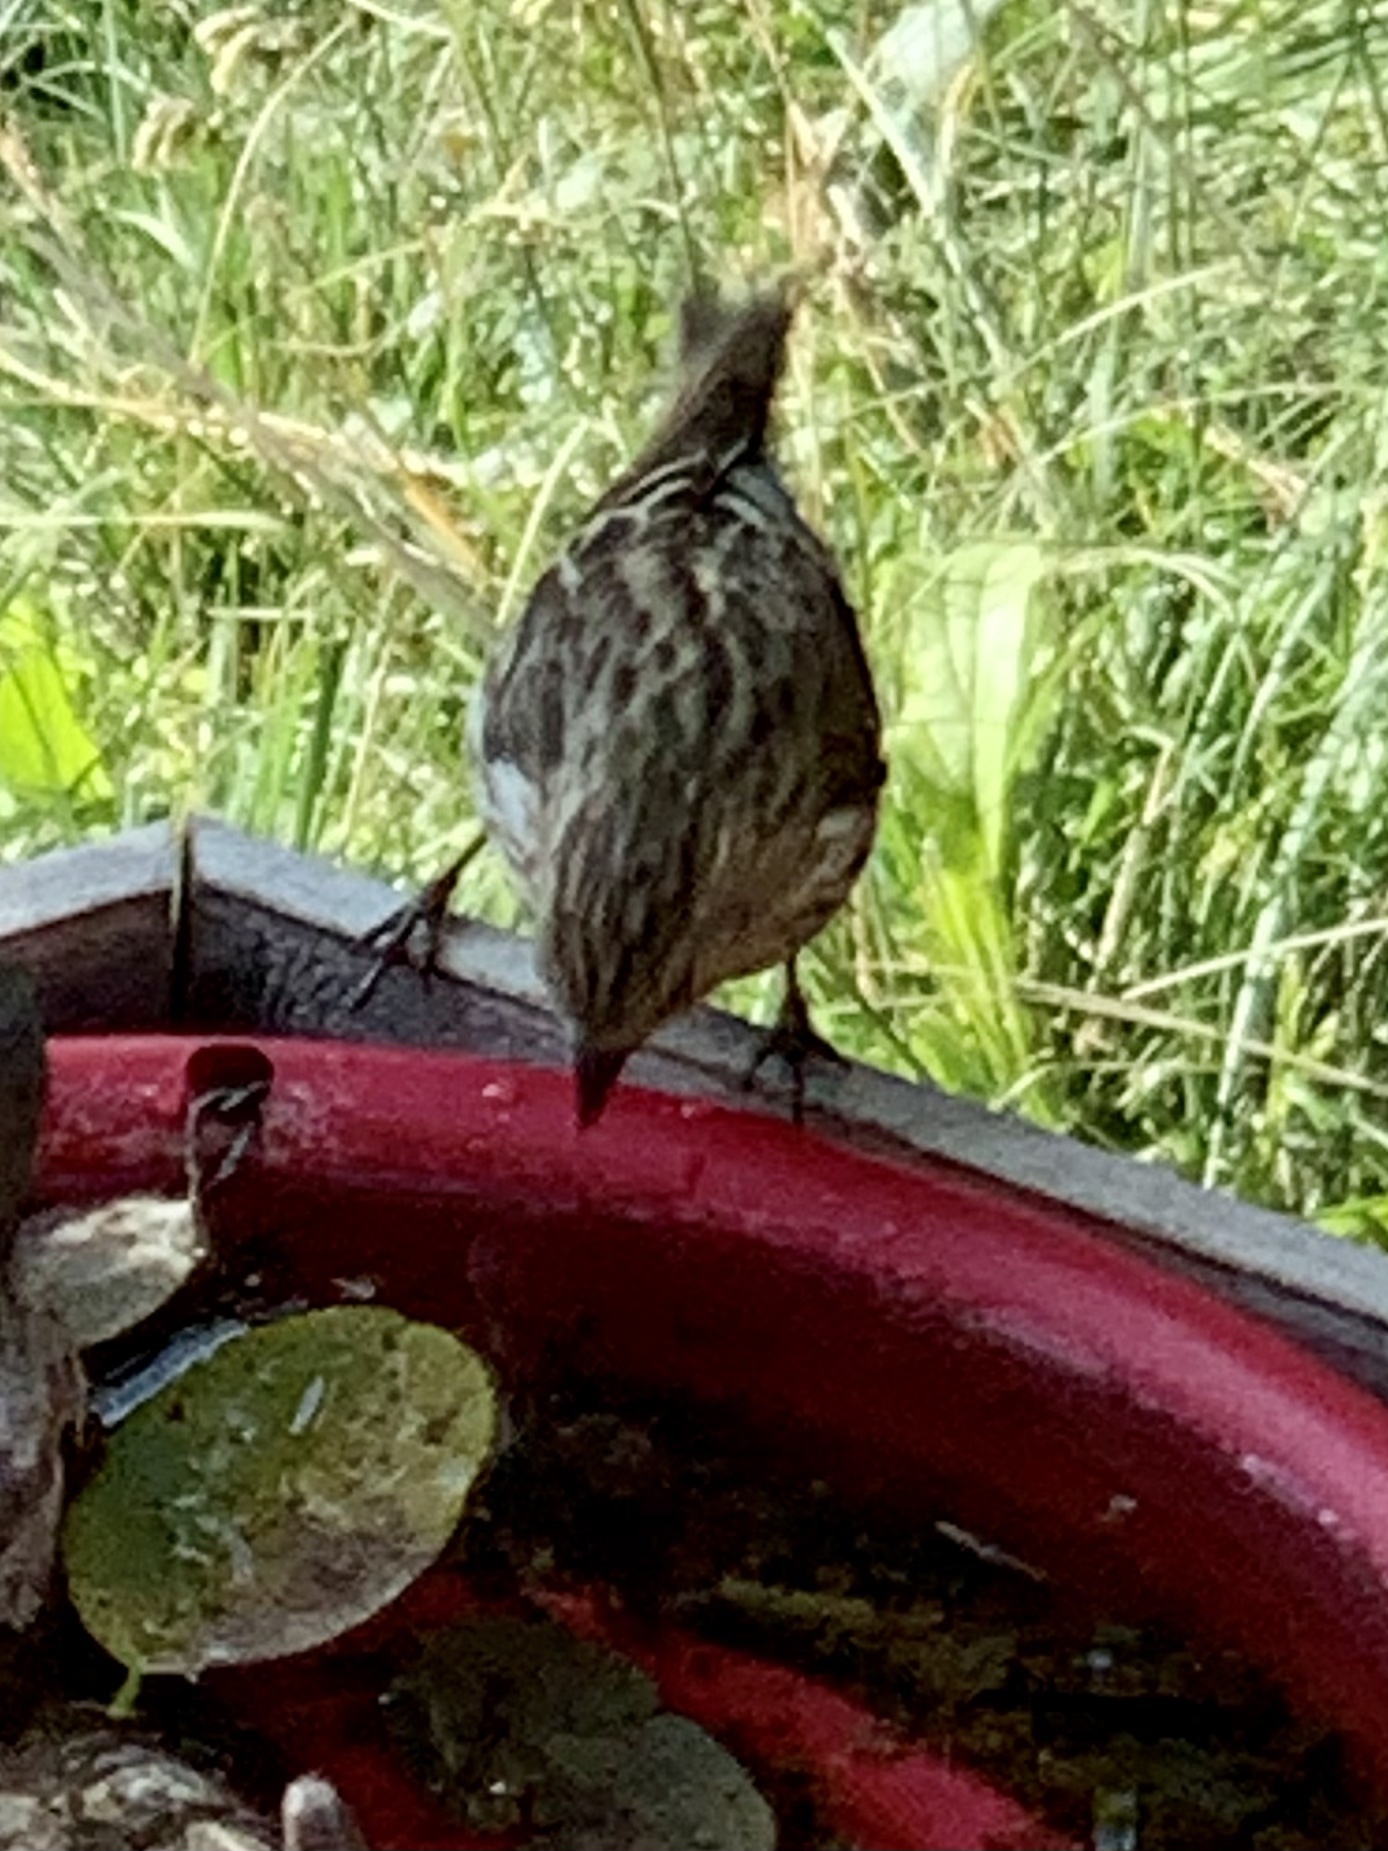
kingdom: Animalia
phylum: Chordata
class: Aves
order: Passeriformes
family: Fringillidae
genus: Spinus
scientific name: Spinus pinus
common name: Pine siskin
